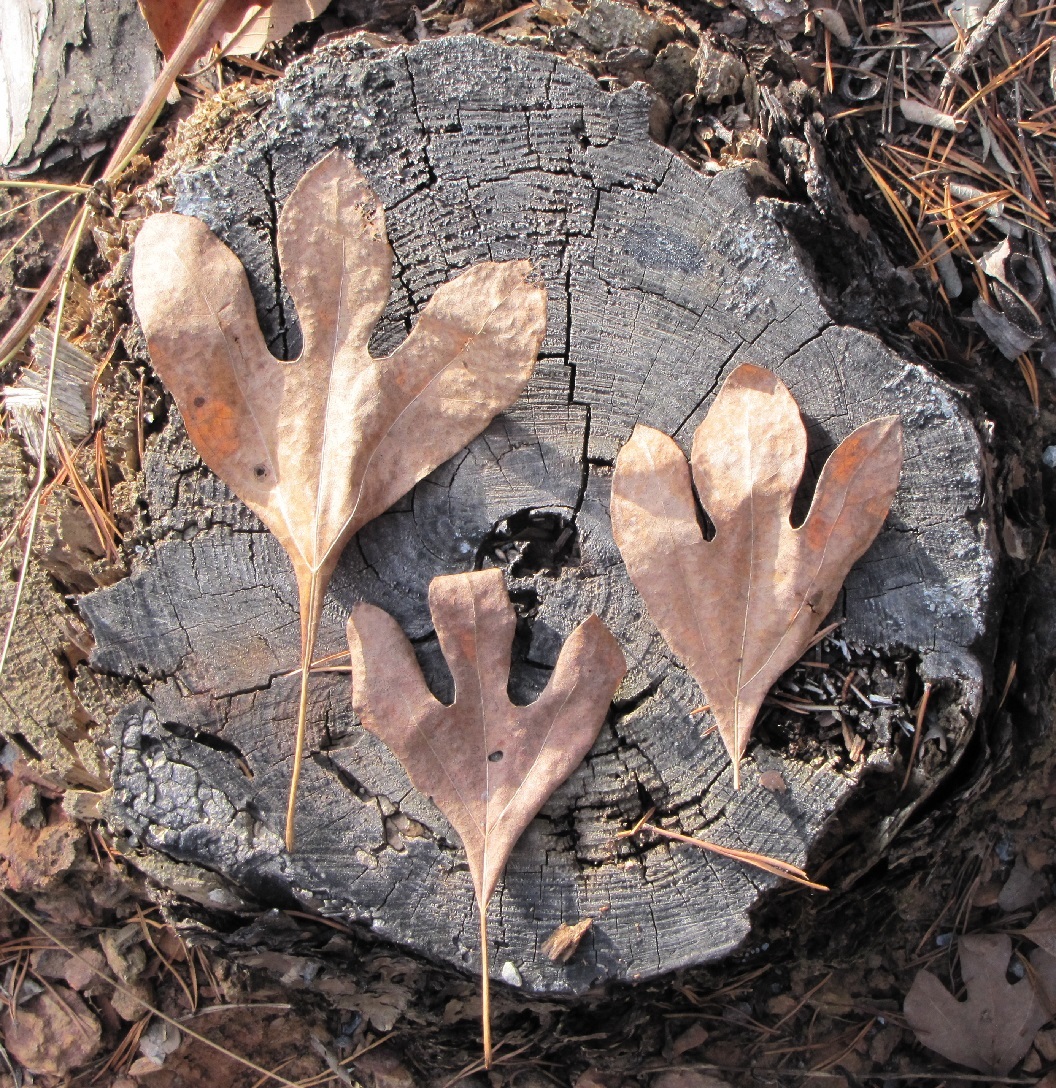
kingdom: Plantae
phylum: Tracheophyta
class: Magnoliopsida
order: Laurales
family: Lauraceae
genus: Sassafras
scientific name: Sassafras albidum
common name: Sassafras
